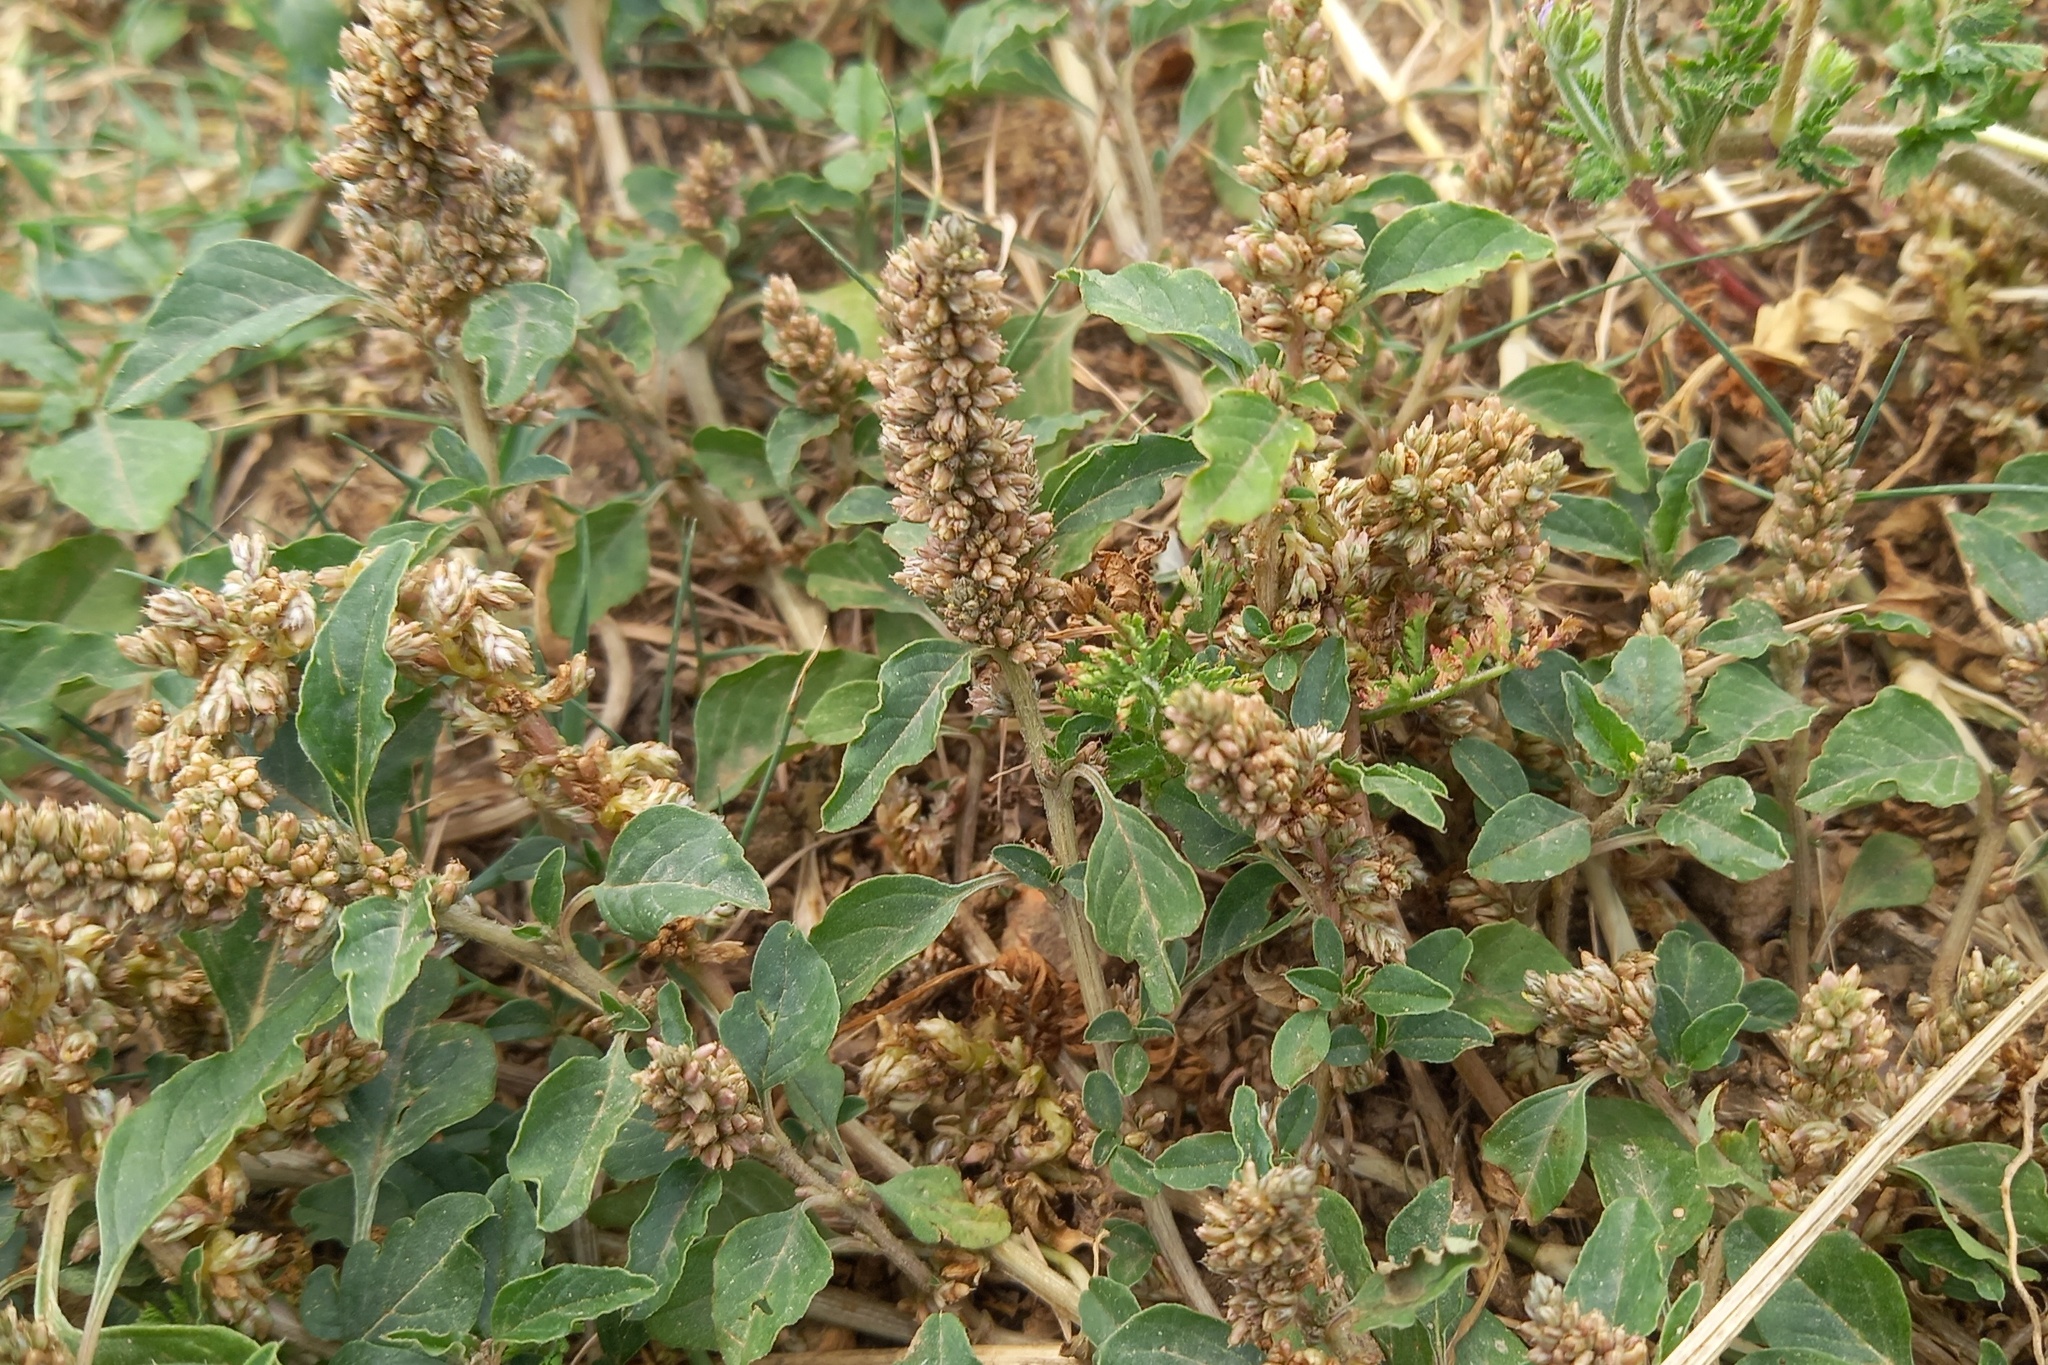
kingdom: Plantae
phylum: Tracheophyta
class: Magnoliopsida
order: Caryophyllales
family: Amaranthaceae
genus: Amaranthus
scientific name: Amaranthus deflexus
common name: Perennial pigweed
